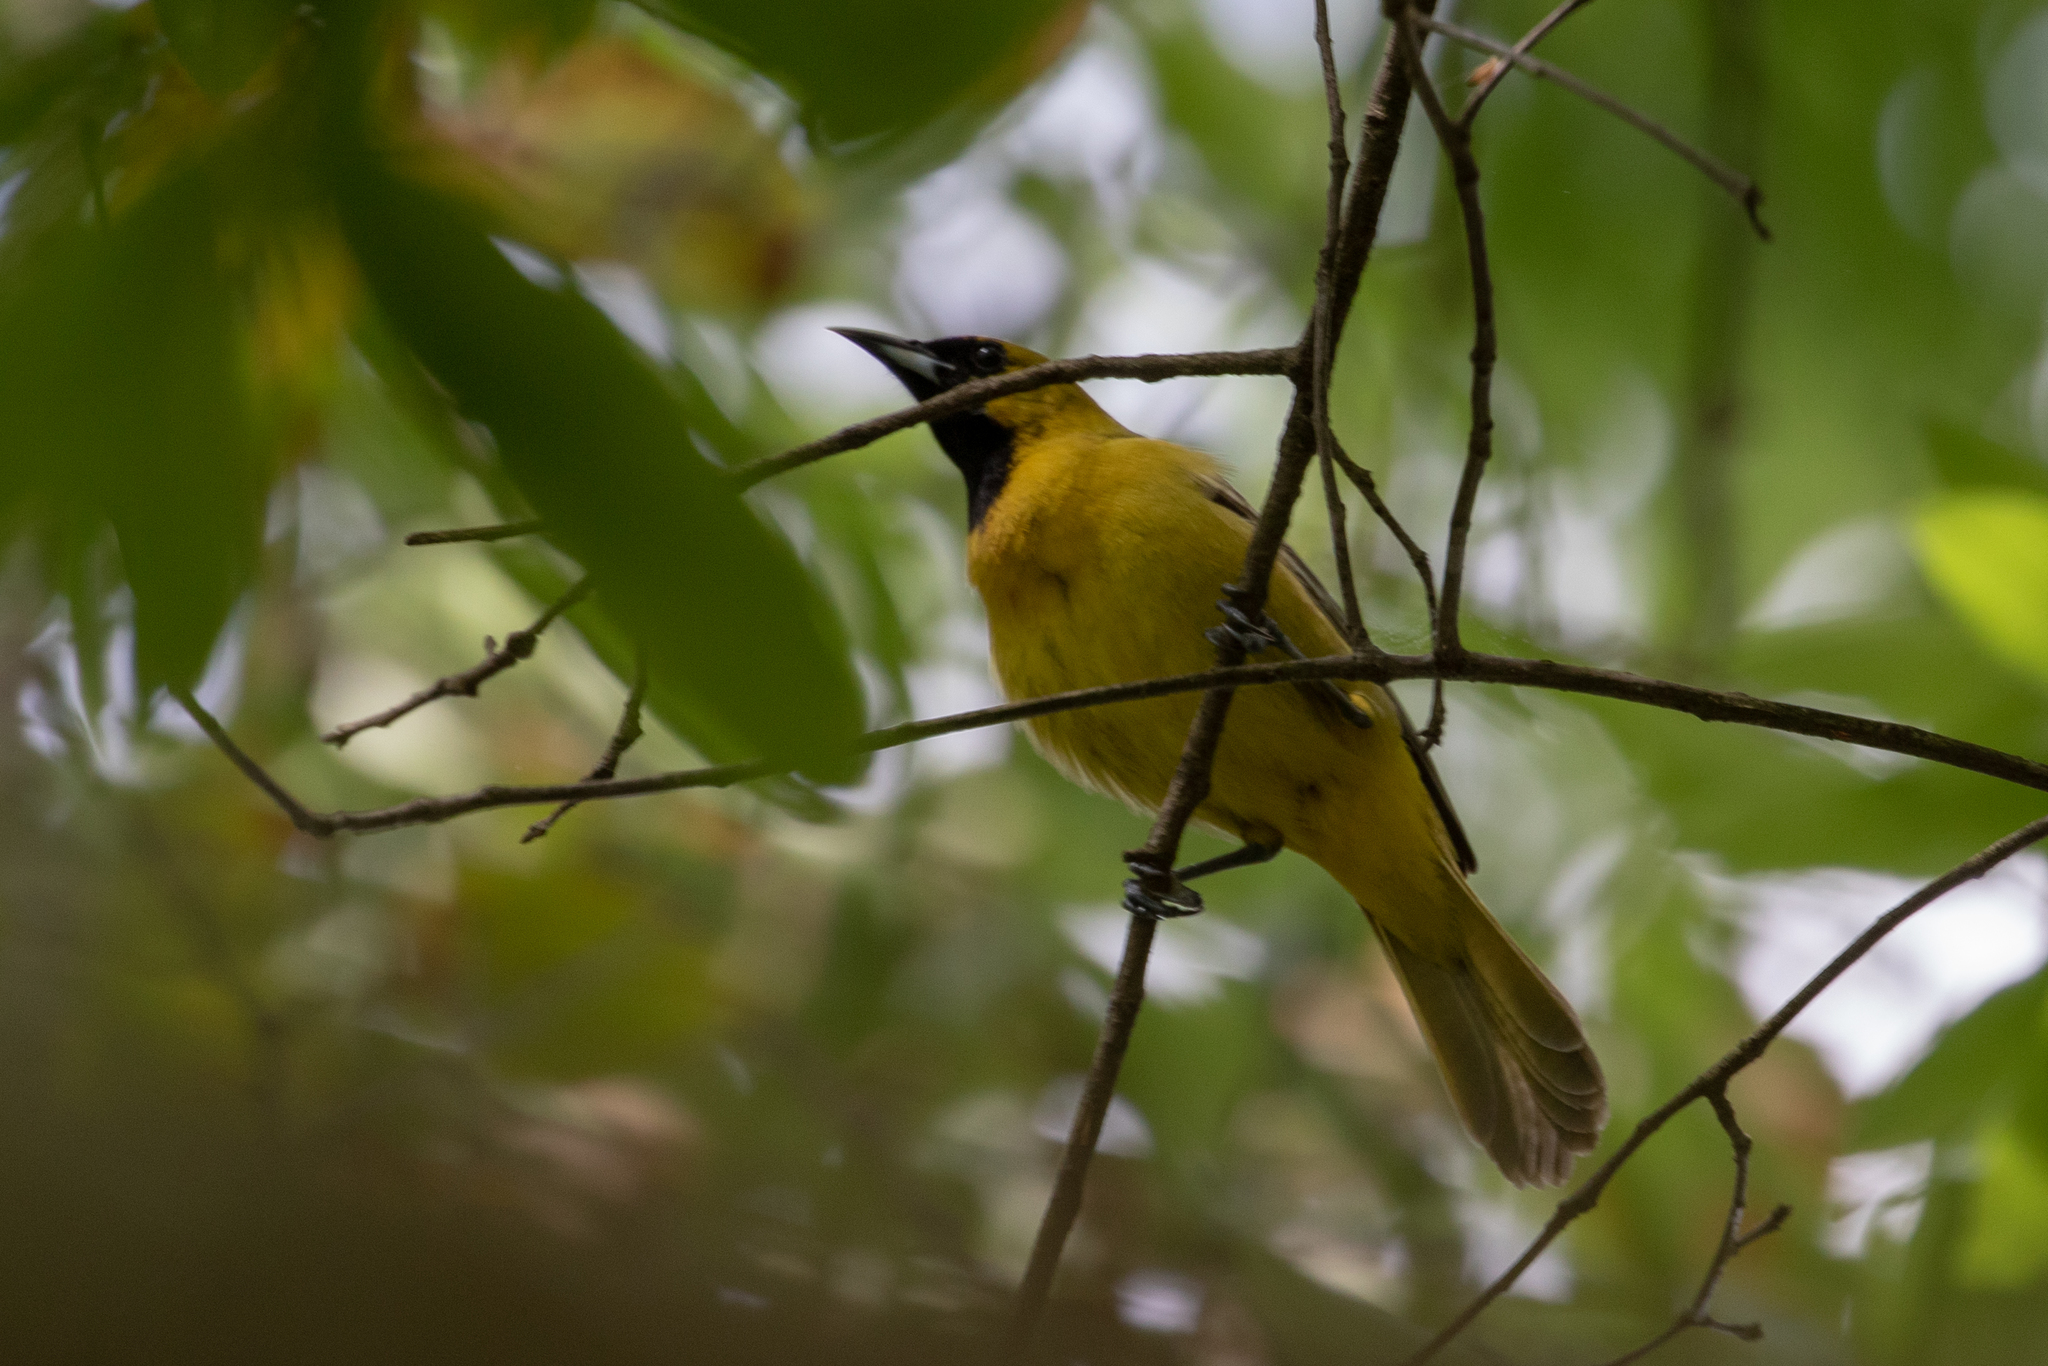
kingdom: Animalia
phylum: Chordata
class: Aves
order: Passeriformes
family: Icteridae
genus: Icterus
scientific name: Icterus spurius
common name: Orchard oriole
